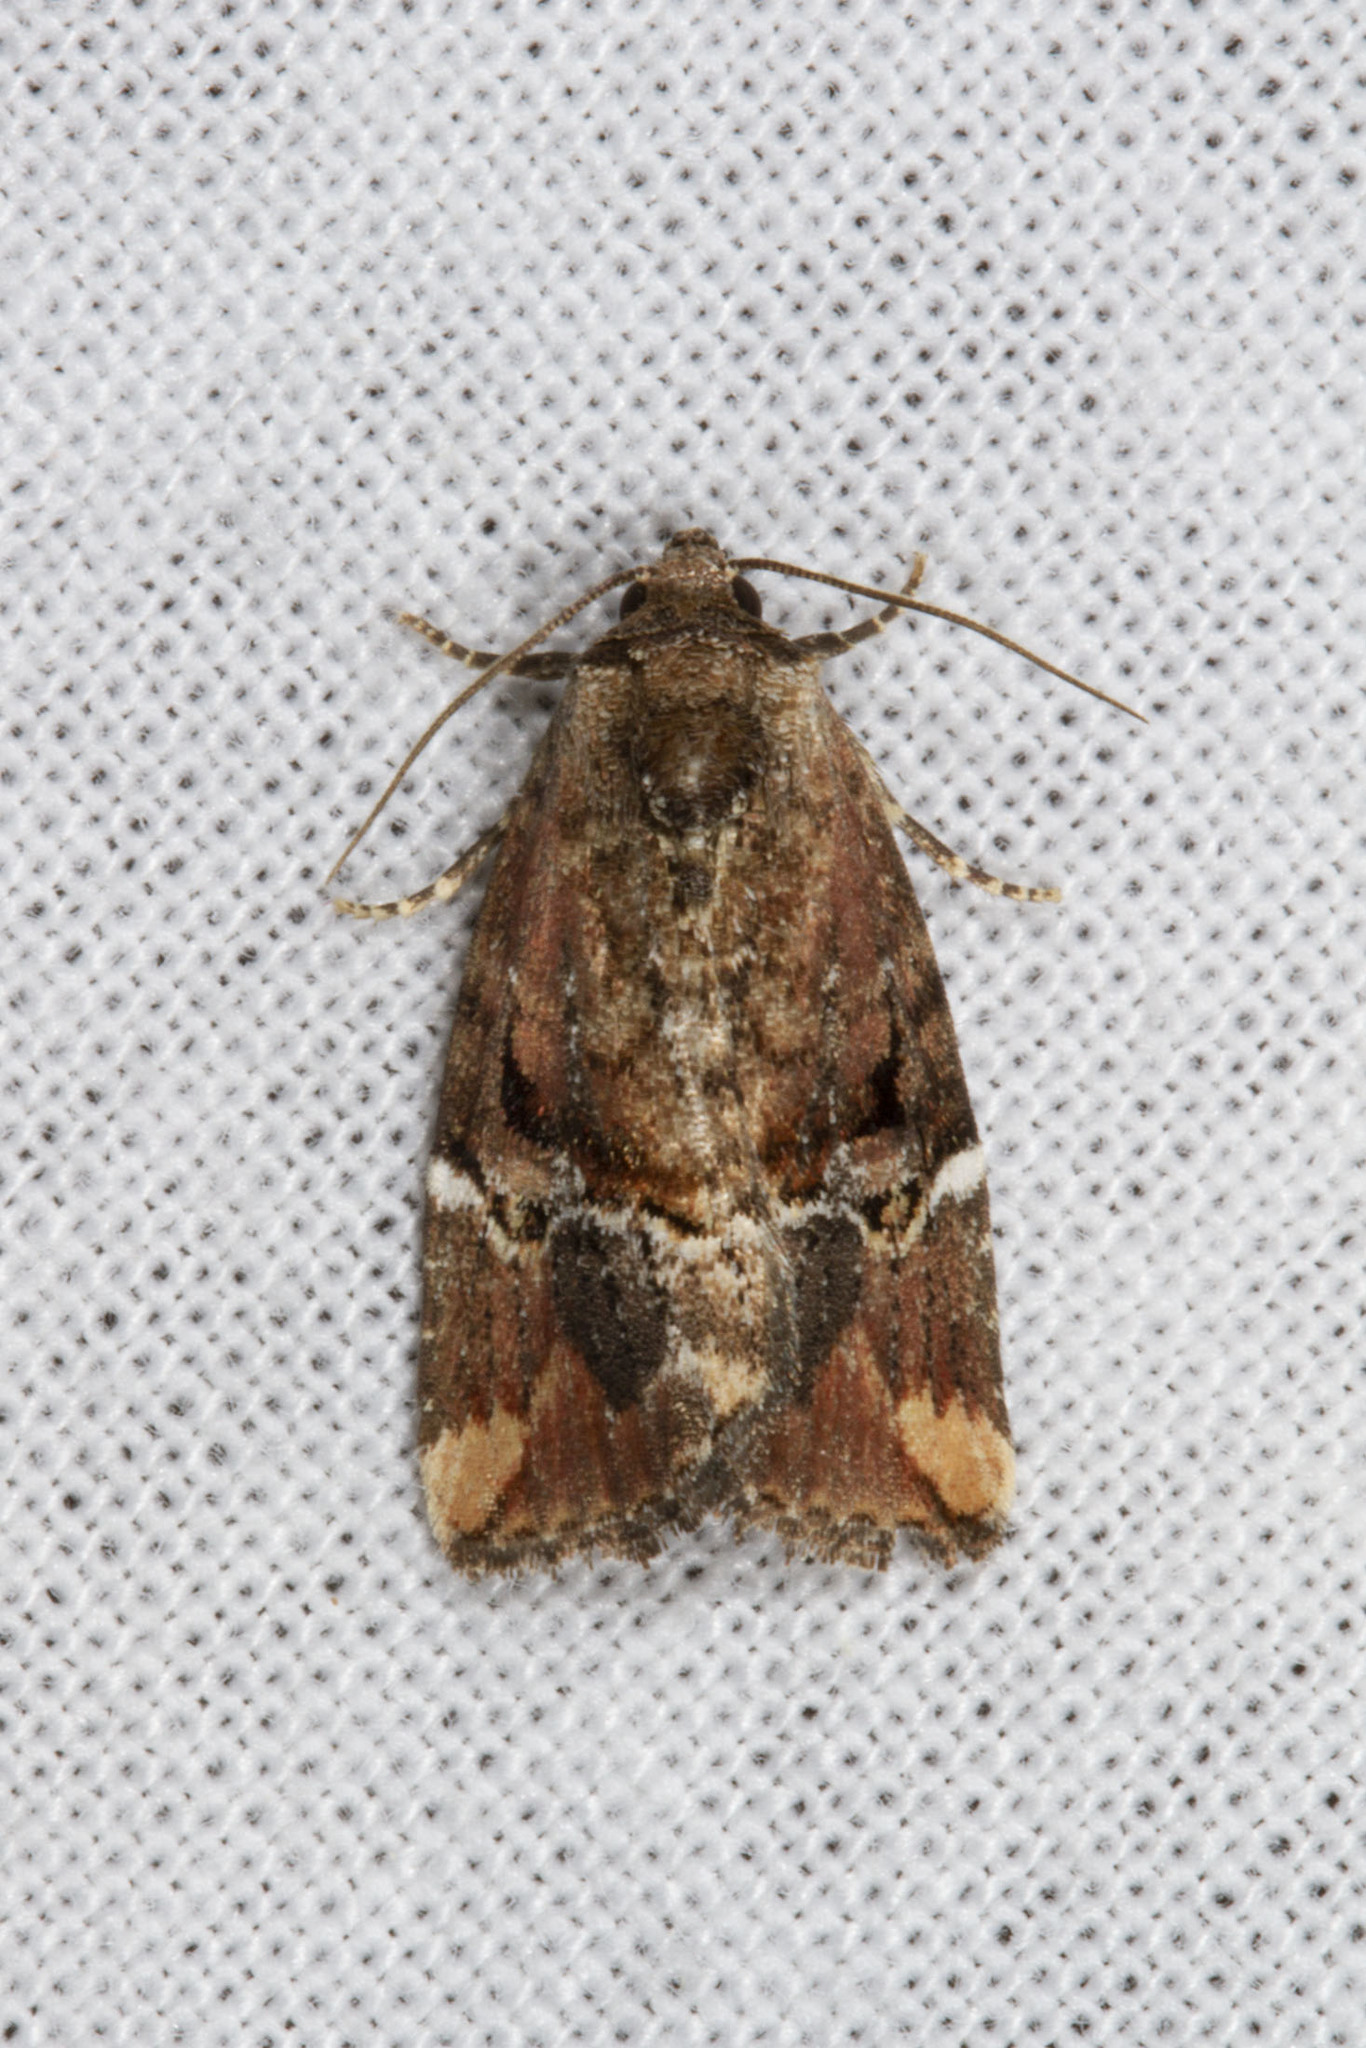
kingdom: Animalia
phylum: Arthropoda
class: Insecta
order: Lepidoptera
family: Noctuidae
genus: Elaphria
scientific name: Elaphria versicolor
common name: Fir harlequin
